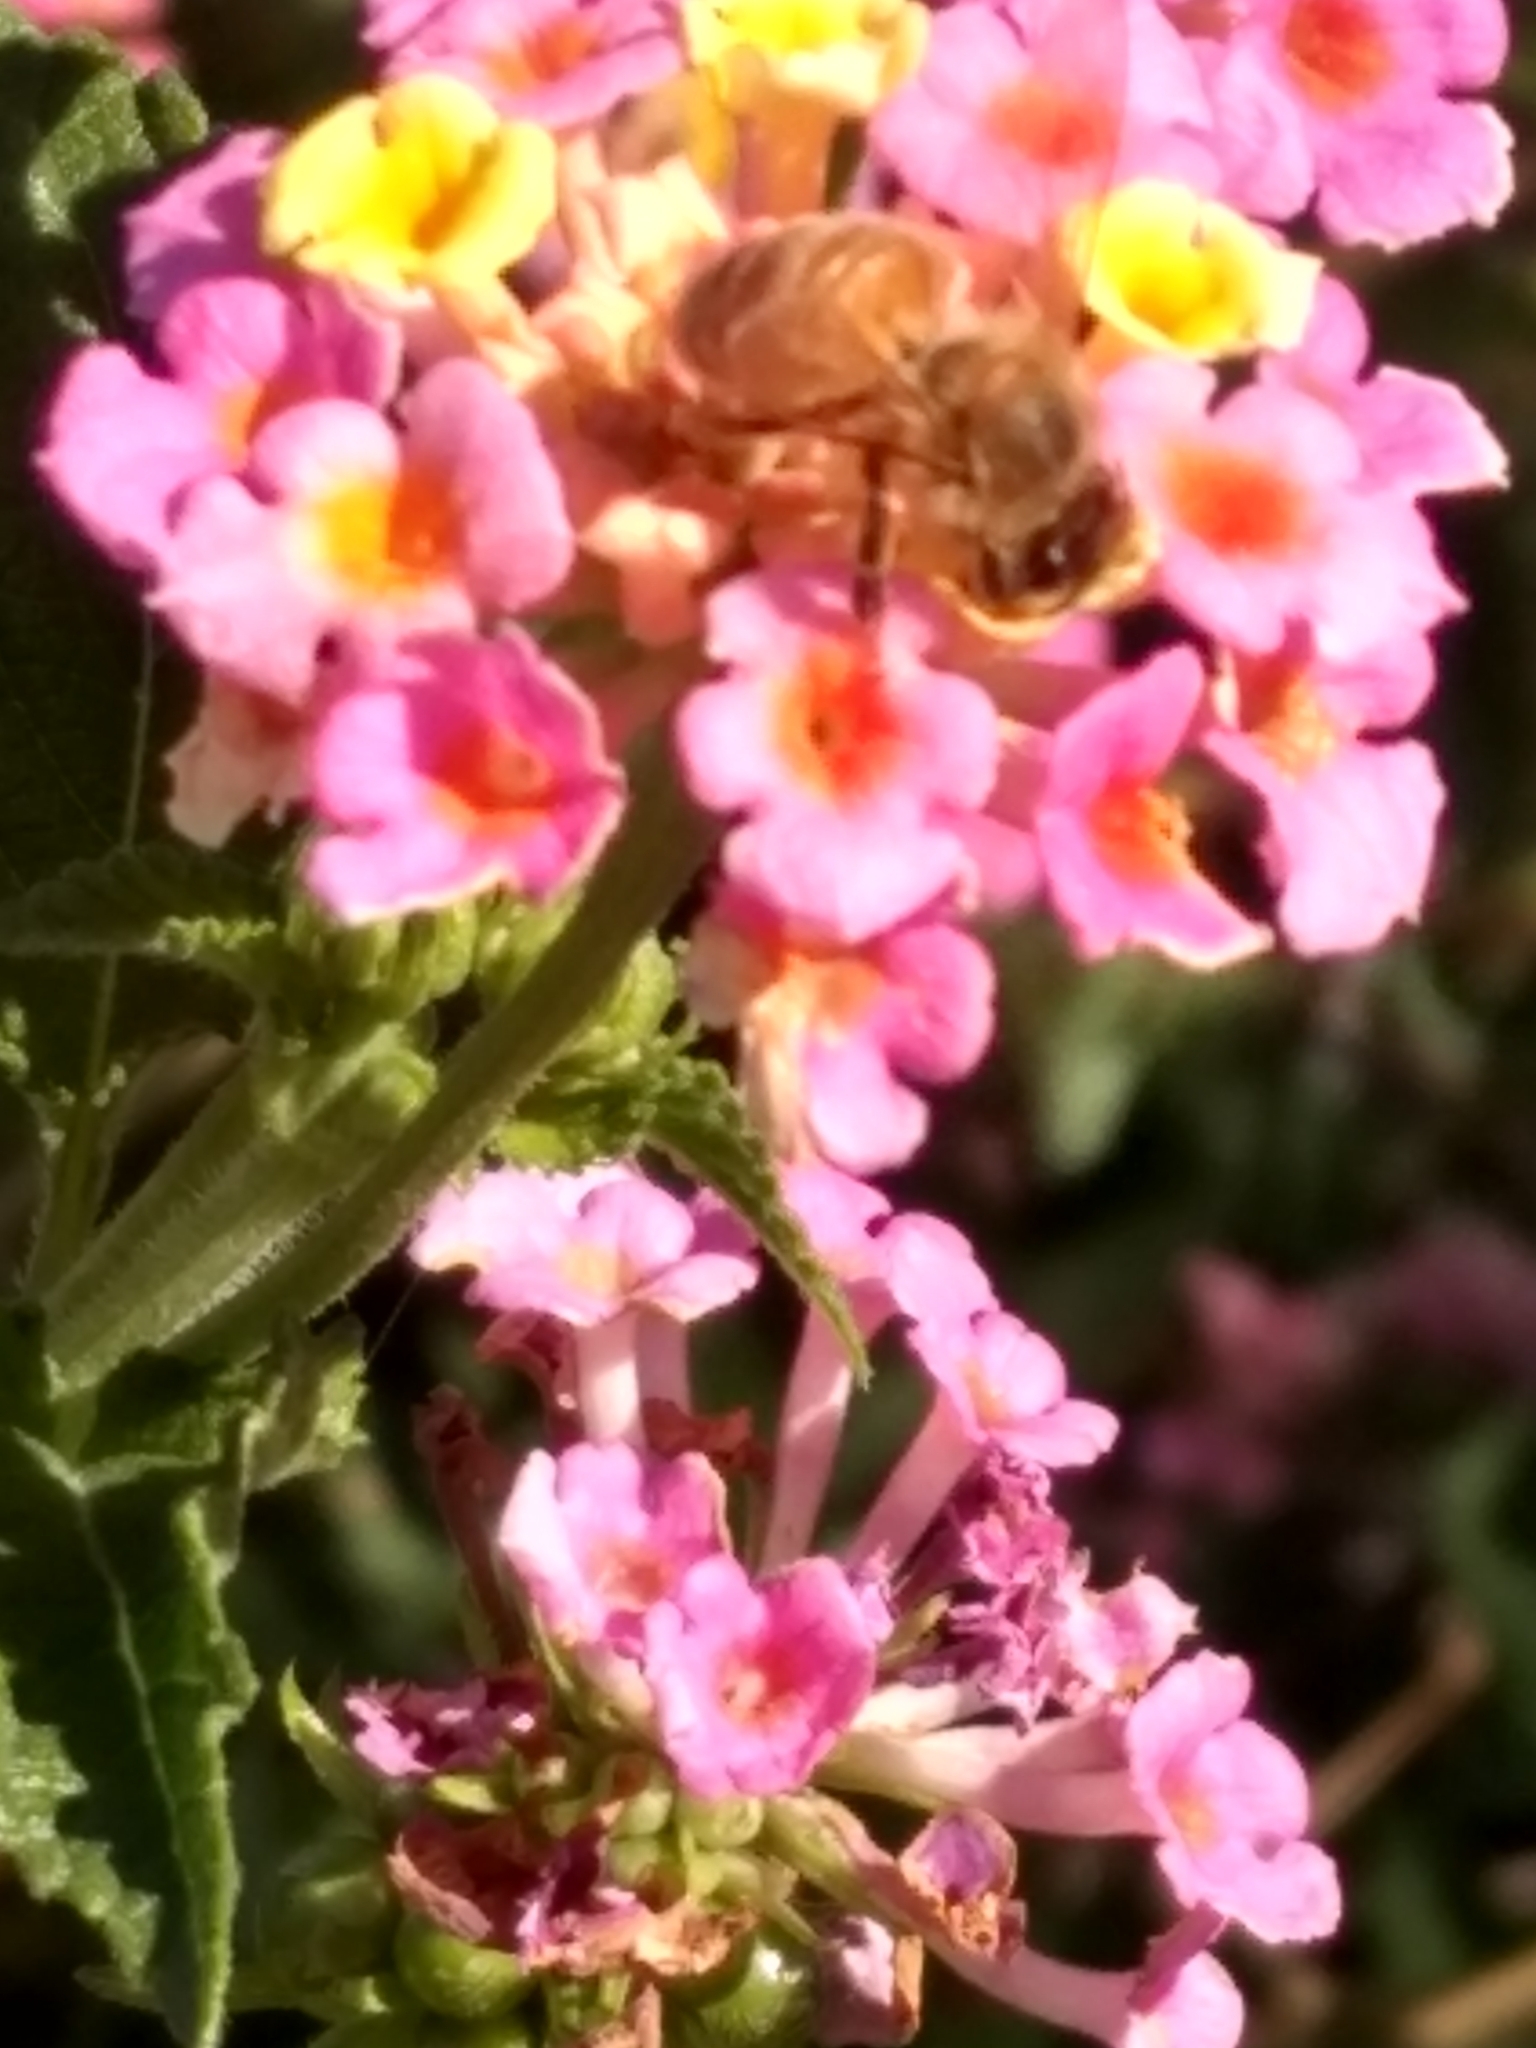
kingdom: Animalia
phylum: Arthropoda
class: Insecta
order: Hymenoptera
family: Apidae
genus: Apis
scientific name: Apis mellifera
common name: Honey bee
